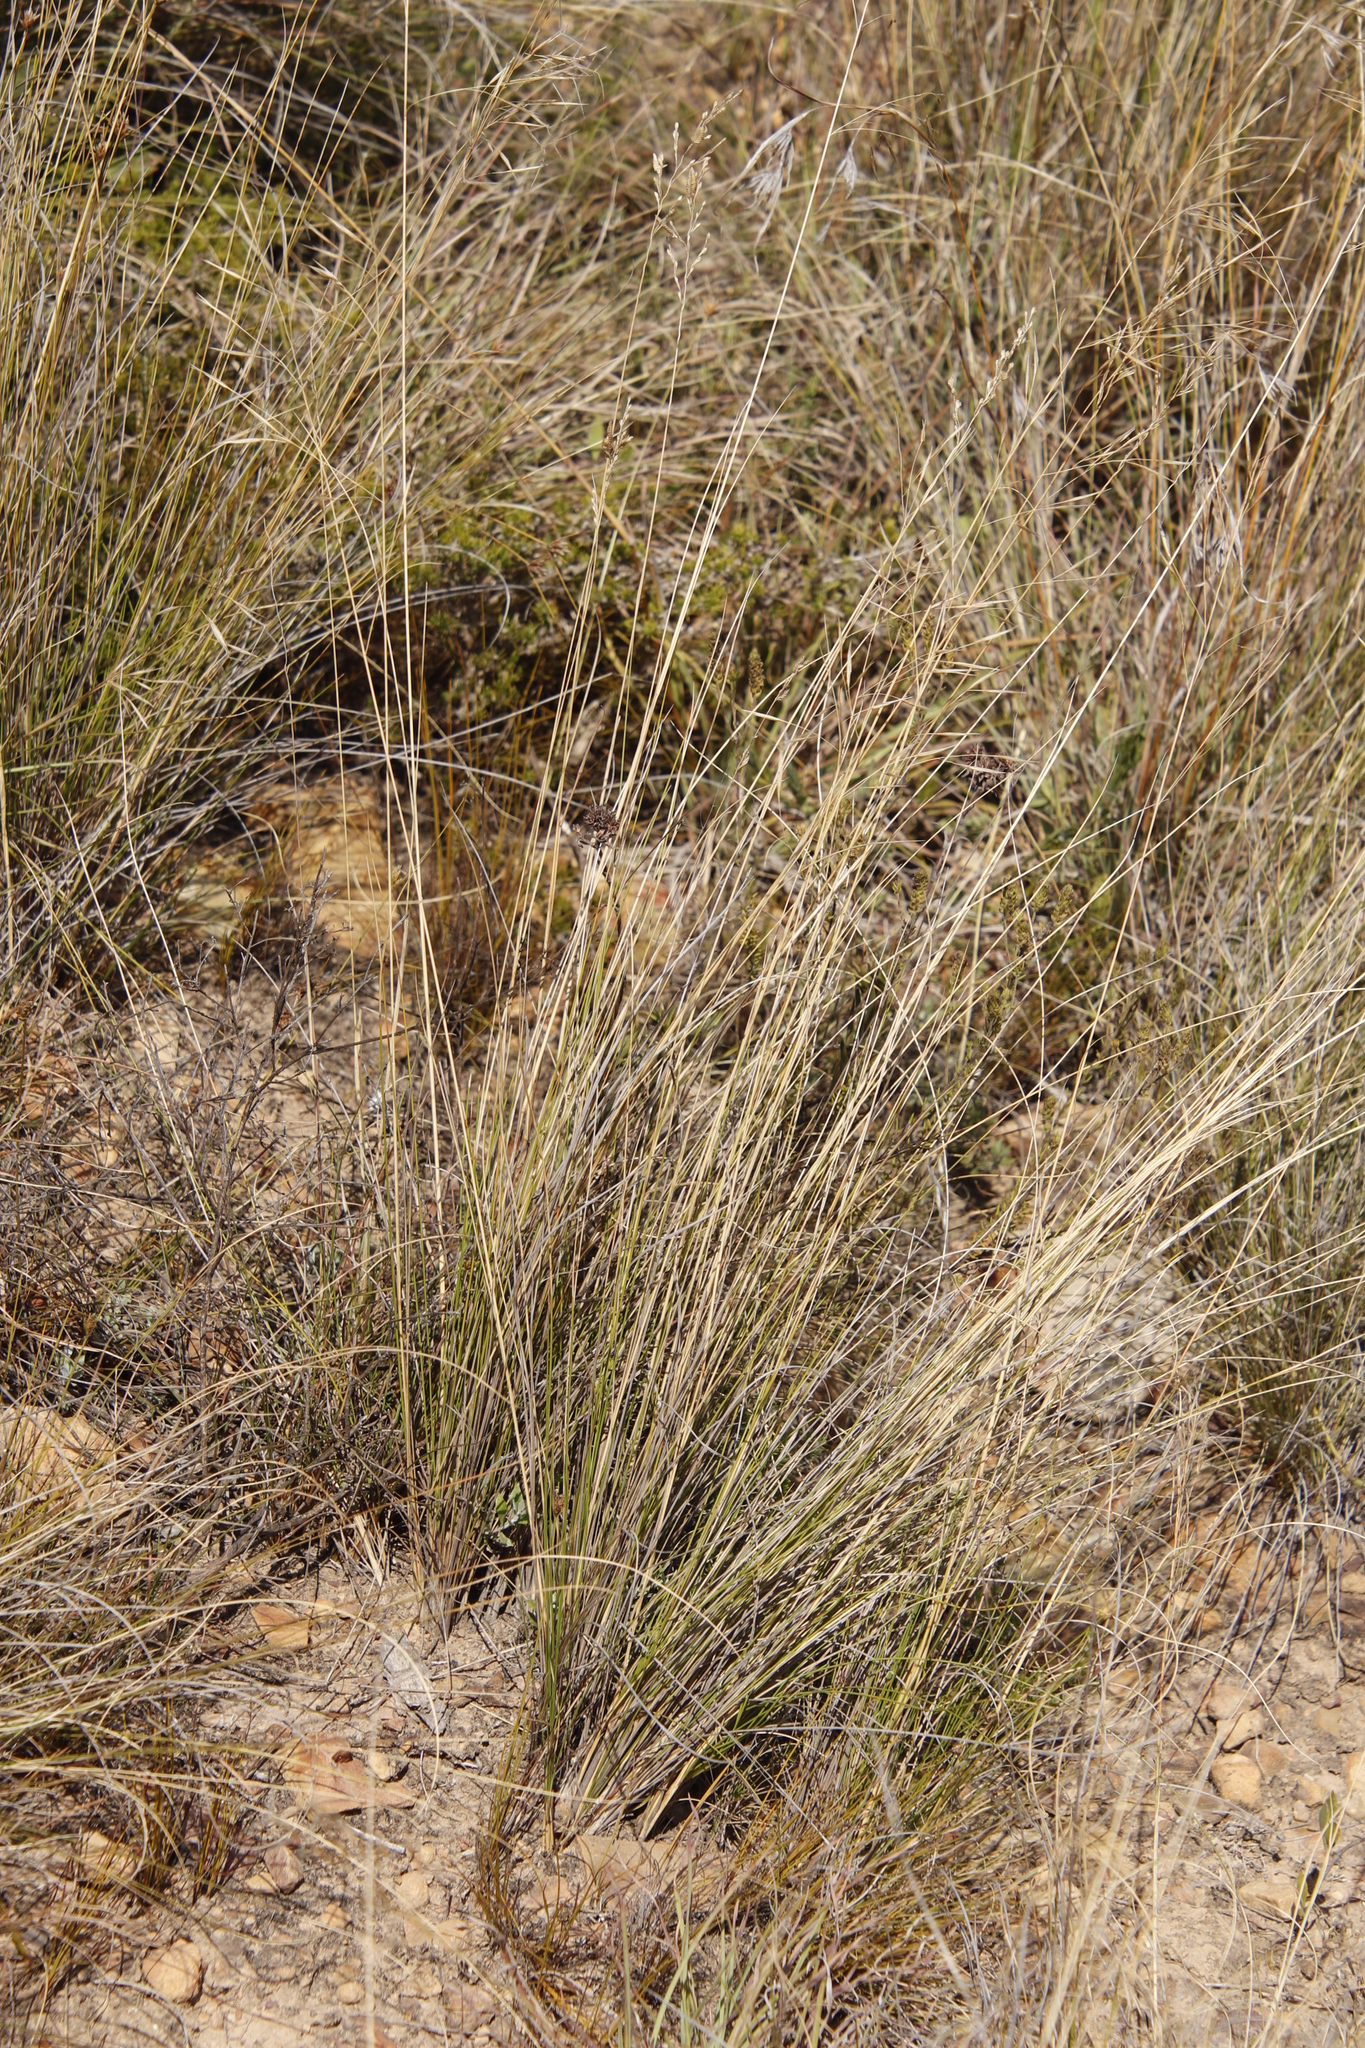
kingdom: Plantae
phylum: Tracheophyta
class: Liliopsida
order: Poales
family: Poaceae
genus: Themeda
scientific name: Themeda triandra
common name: Kangaroo grass
